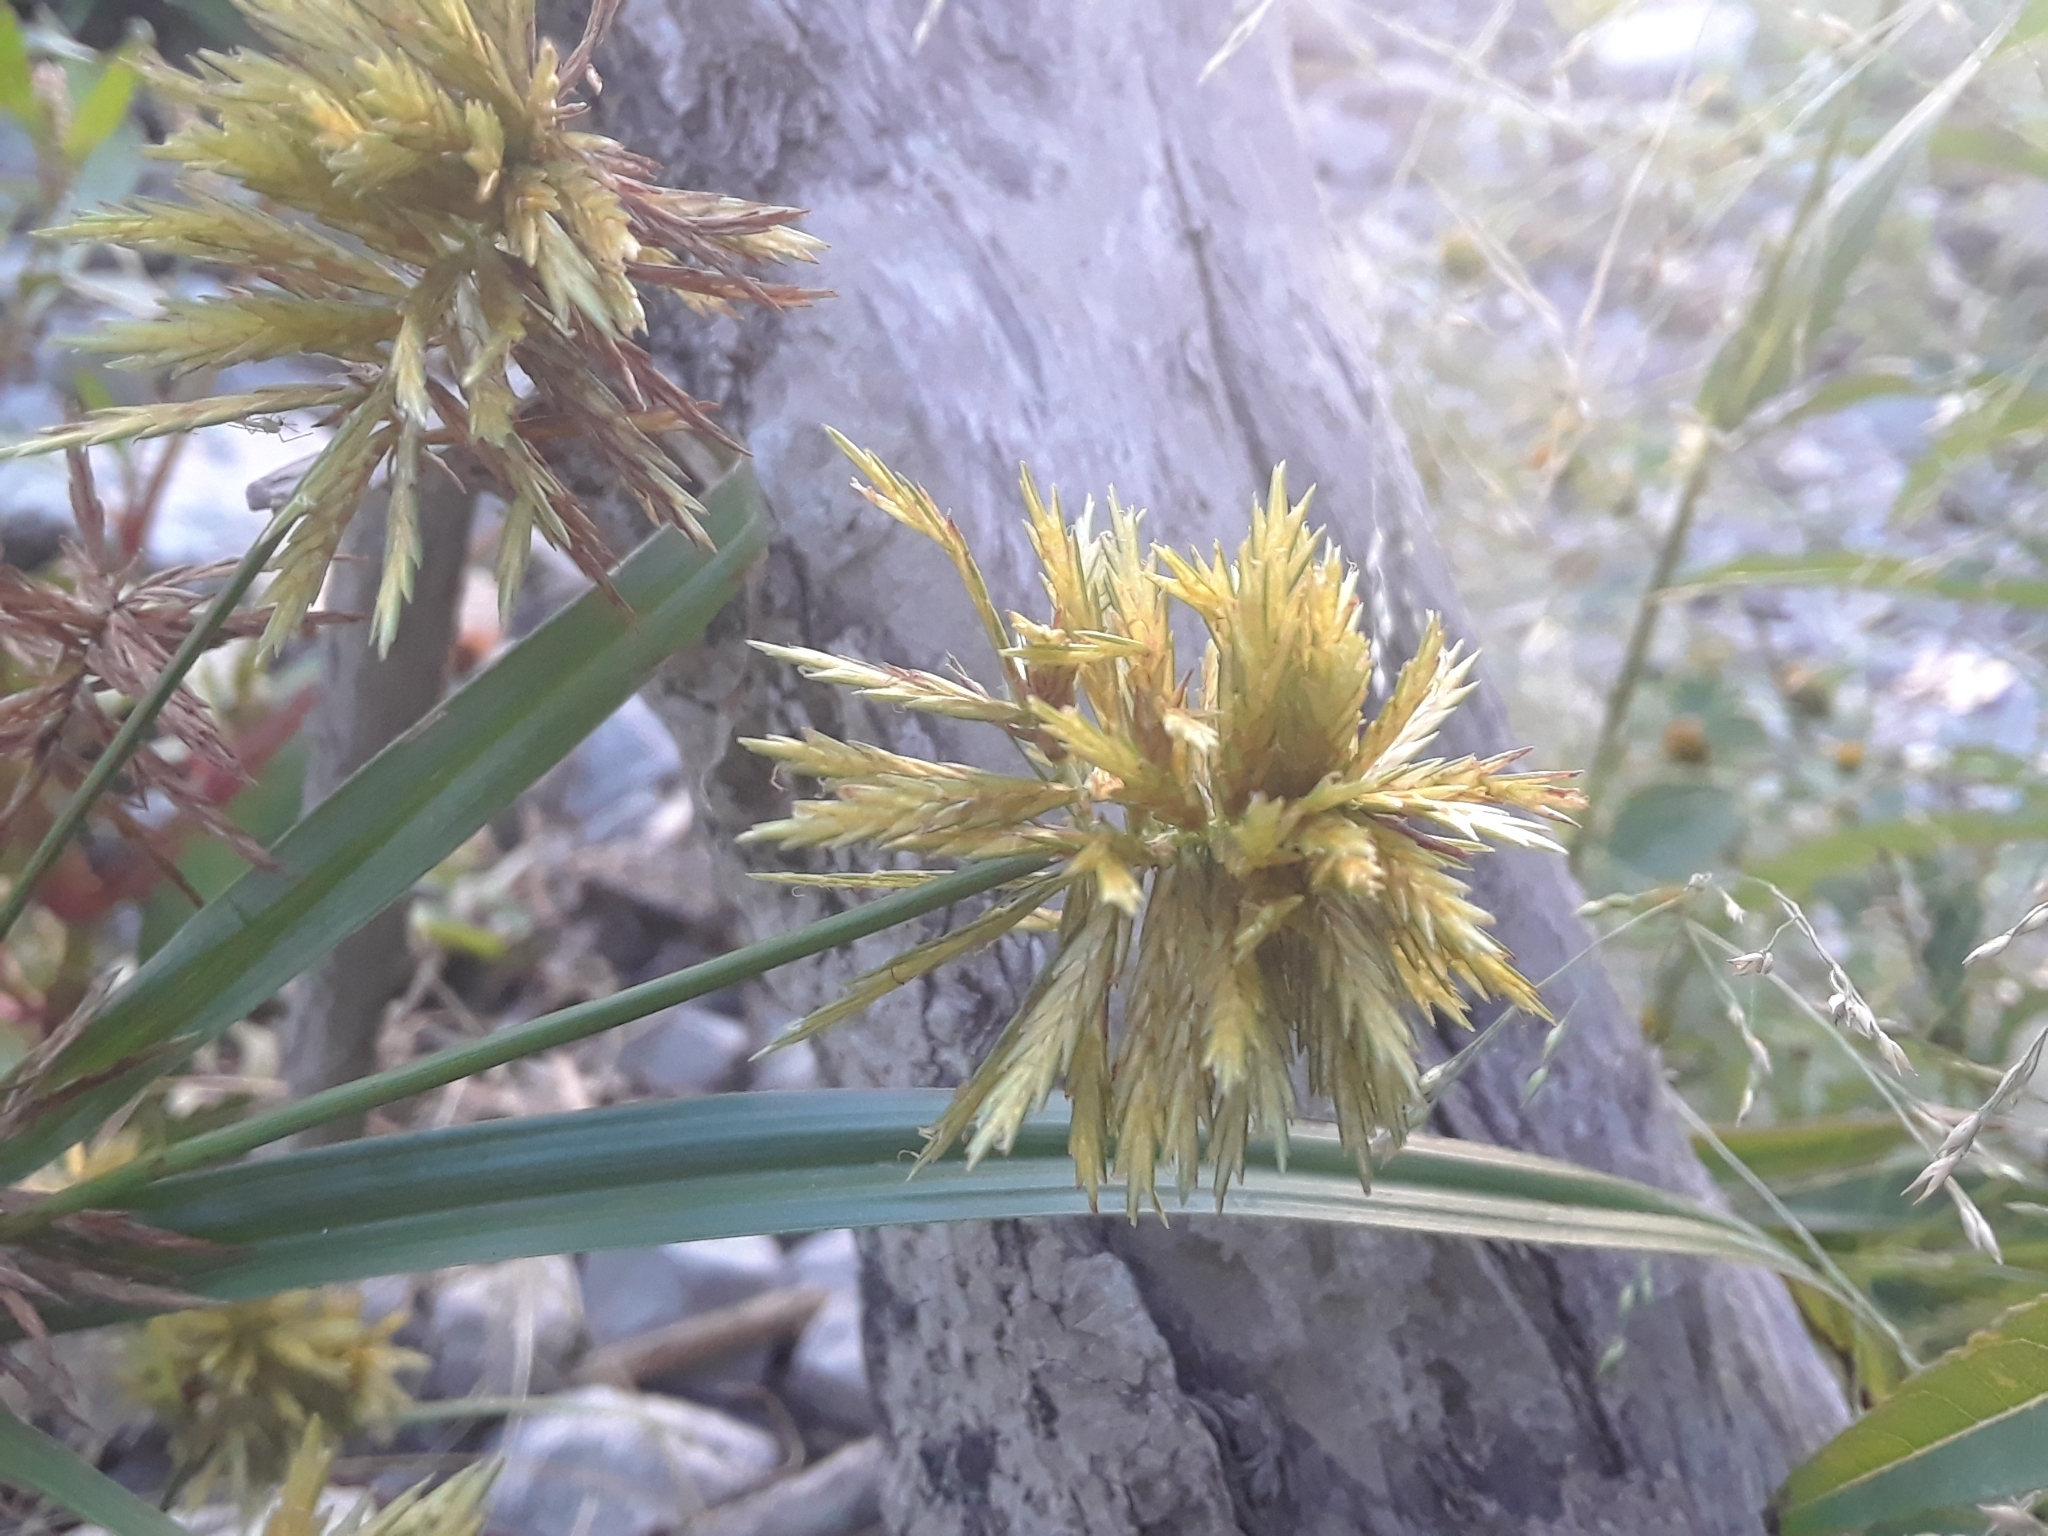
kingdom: Plantae
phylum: Tracheophyta
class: Liliopsida
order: Poales
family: Cyperaceae
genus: Cyperus
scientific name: Cyperus strigosus
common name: False nutsedge
